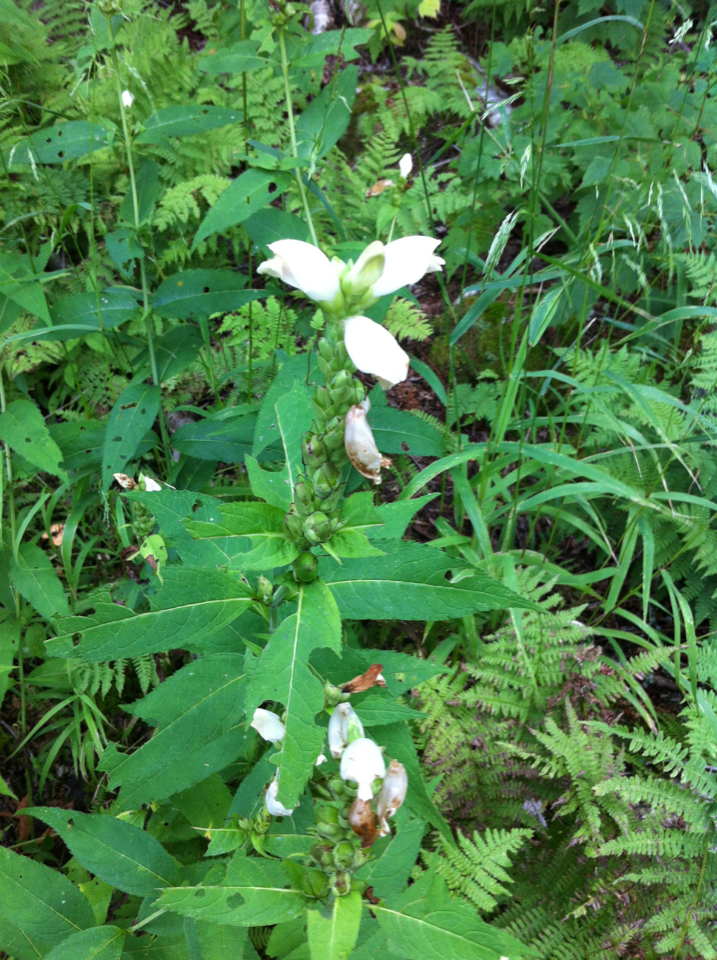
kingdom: Plantae
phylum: Tracheophyta
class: Magnoliopsida
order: Lamiales
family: Plantaginaceae
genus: Chelone
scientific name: Chelone glabra
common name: Snakehead
